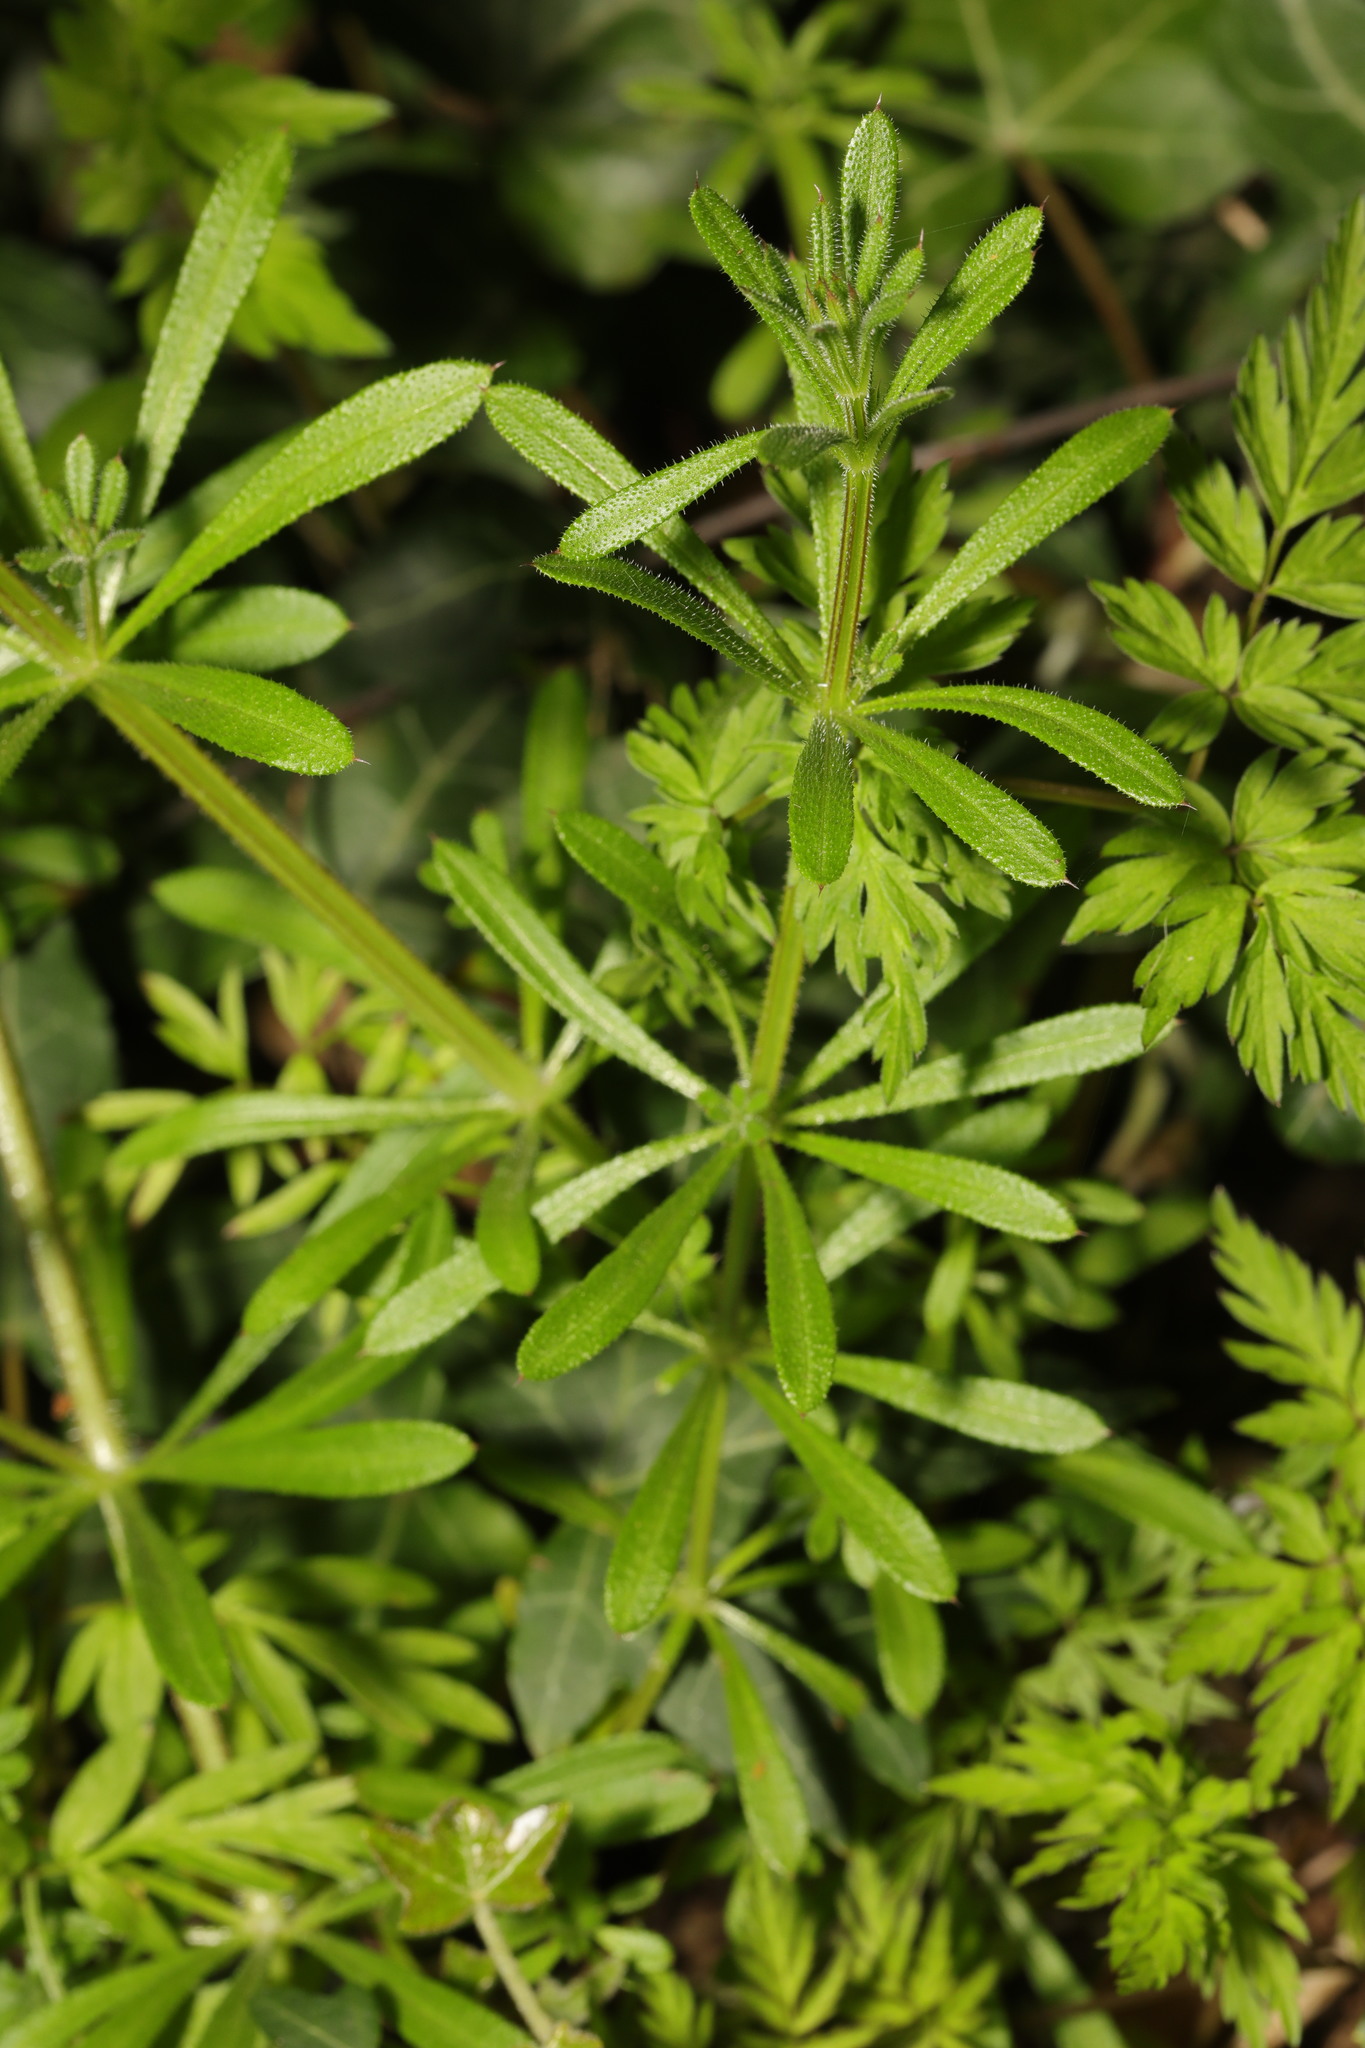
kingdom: Plantae
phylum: Tracheophyta
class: Magnoliopsida
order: Gentianales
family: Rubiaceae
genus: Galium
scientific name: Galium aparine
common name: Cleavers
